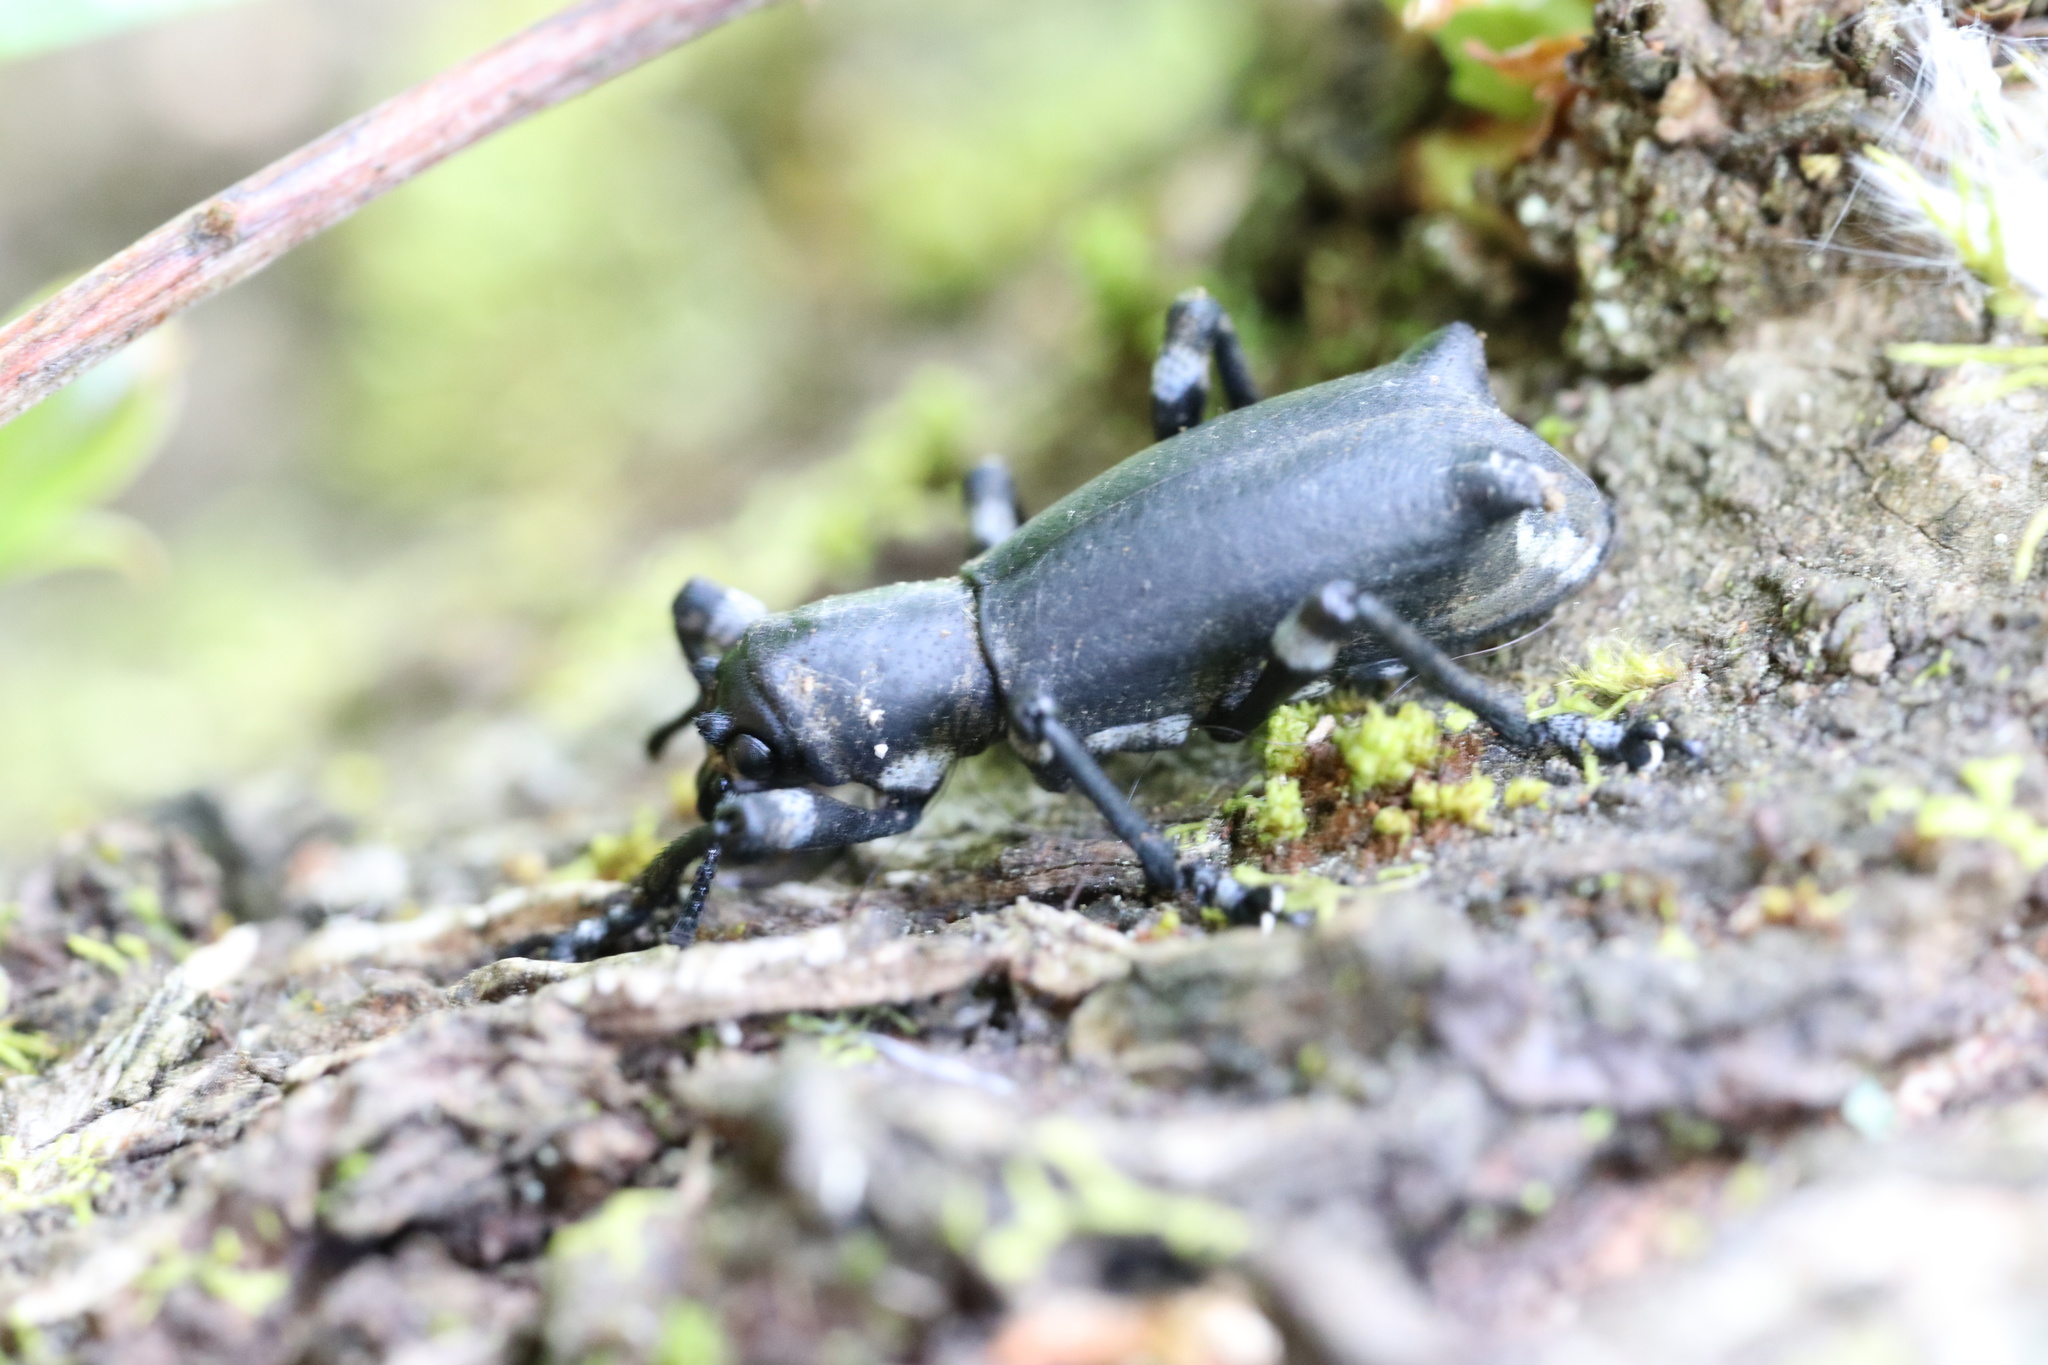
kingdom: Animalia
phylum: Arthropoda
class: Insecta
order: Coleoptera
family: Curculionidae
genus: Aegorhinus
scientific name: Aegorhinus
